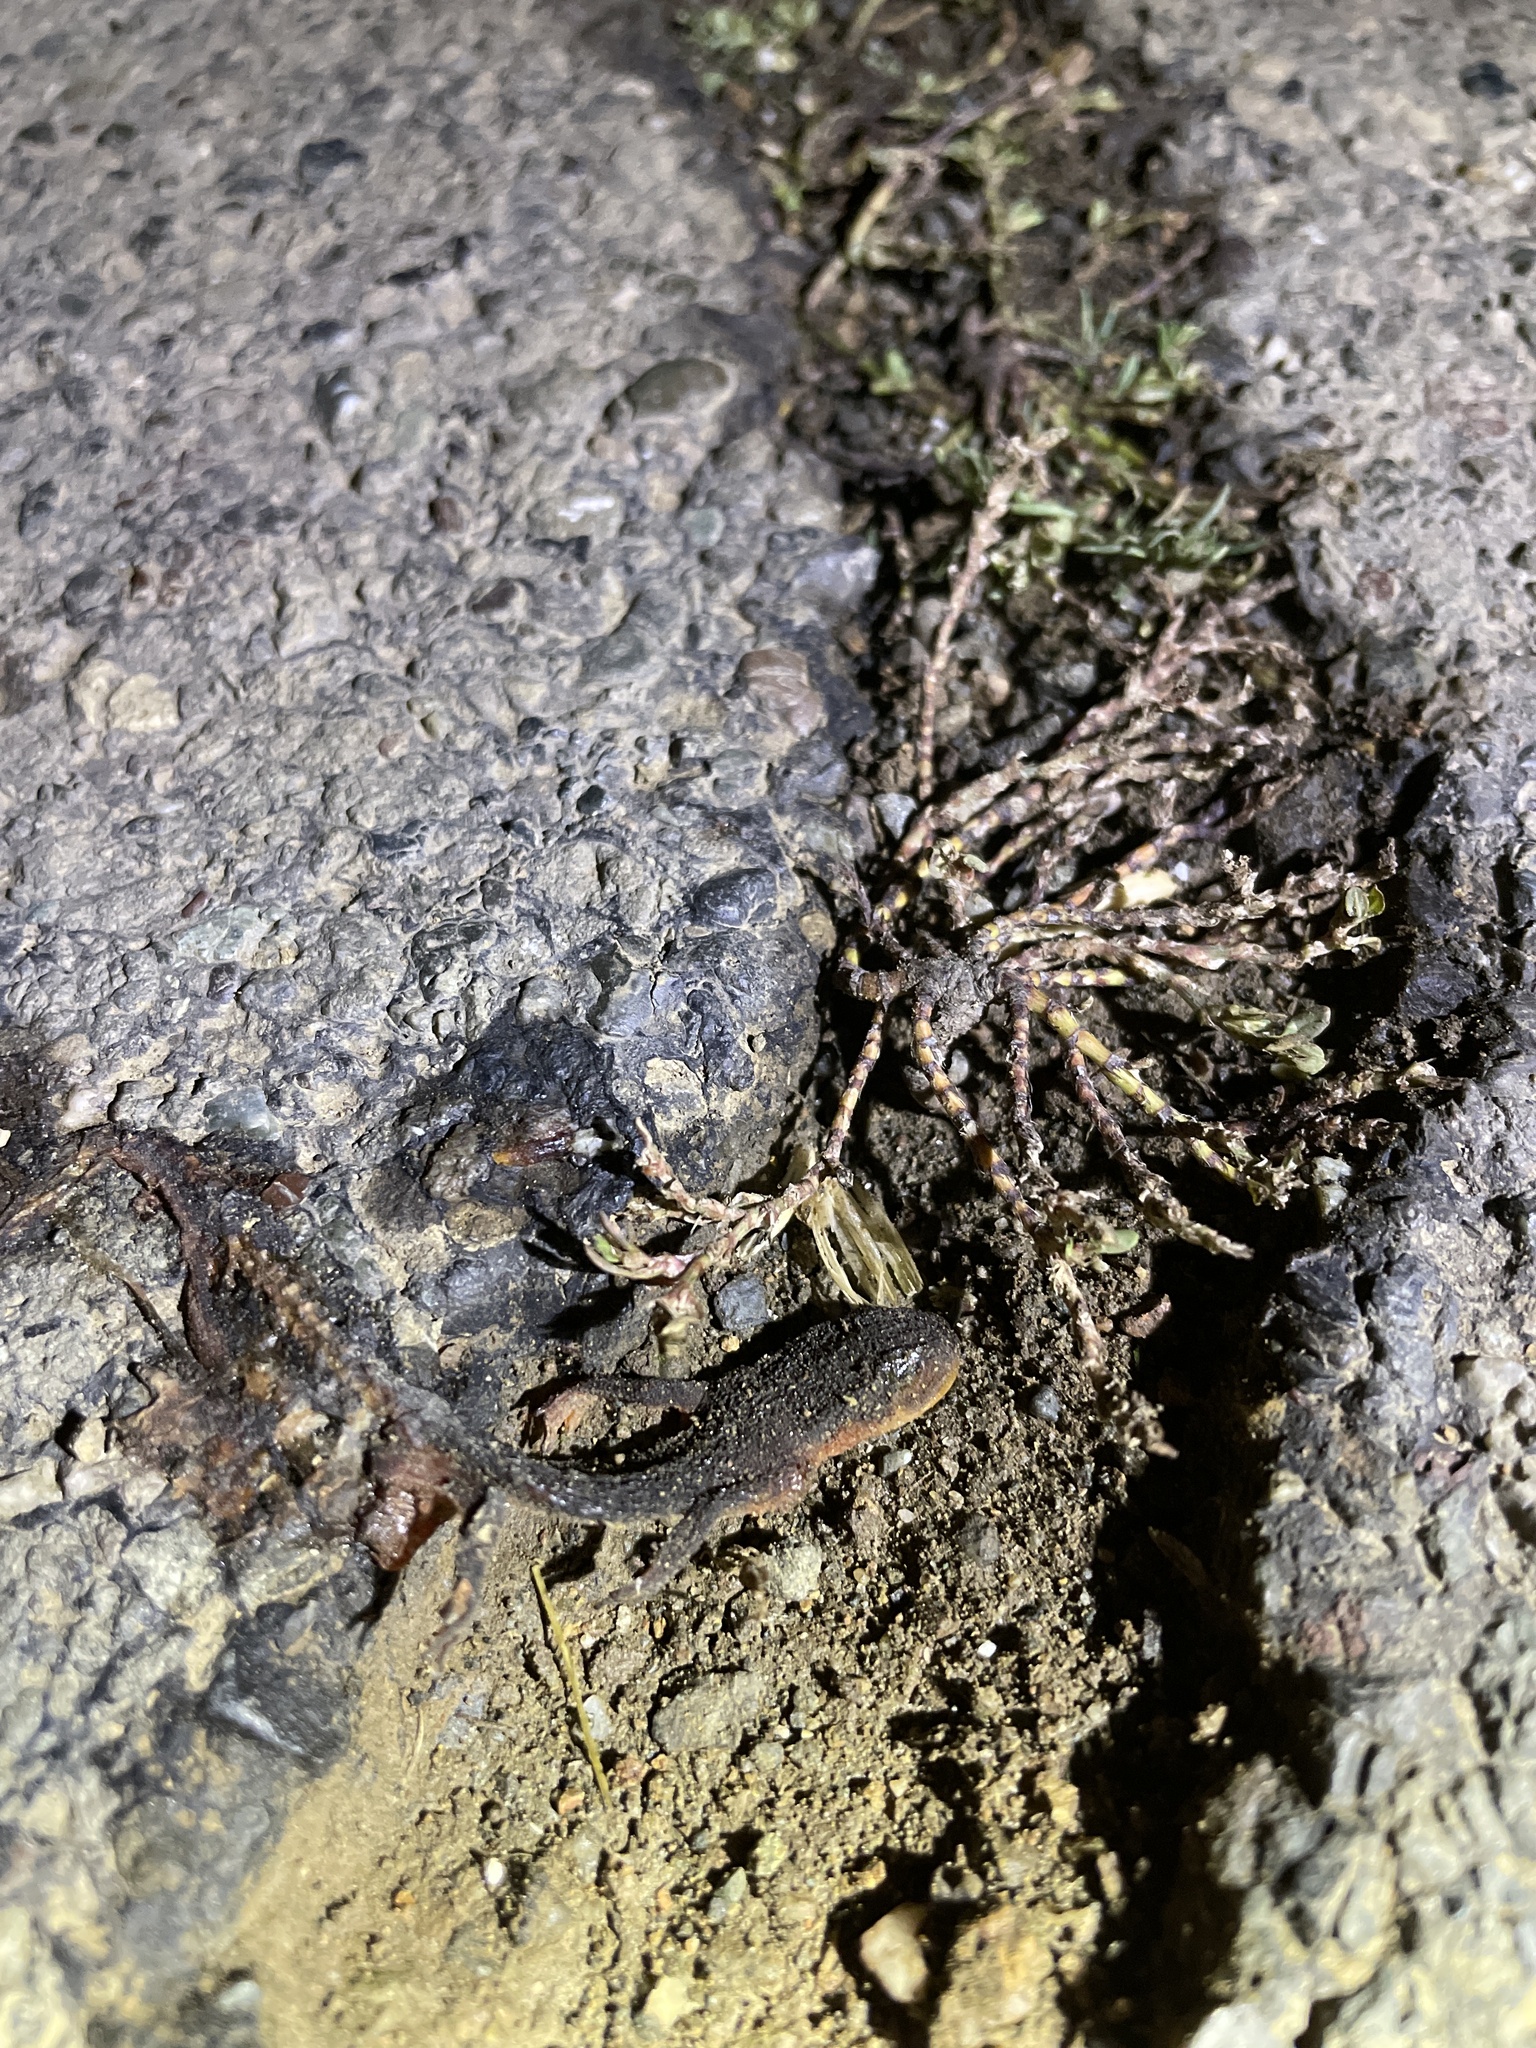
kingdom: Animalia
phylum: Chordata
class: Amphibia
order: Caudata
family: Salamandridae
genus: Taricha
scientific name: Taricha
